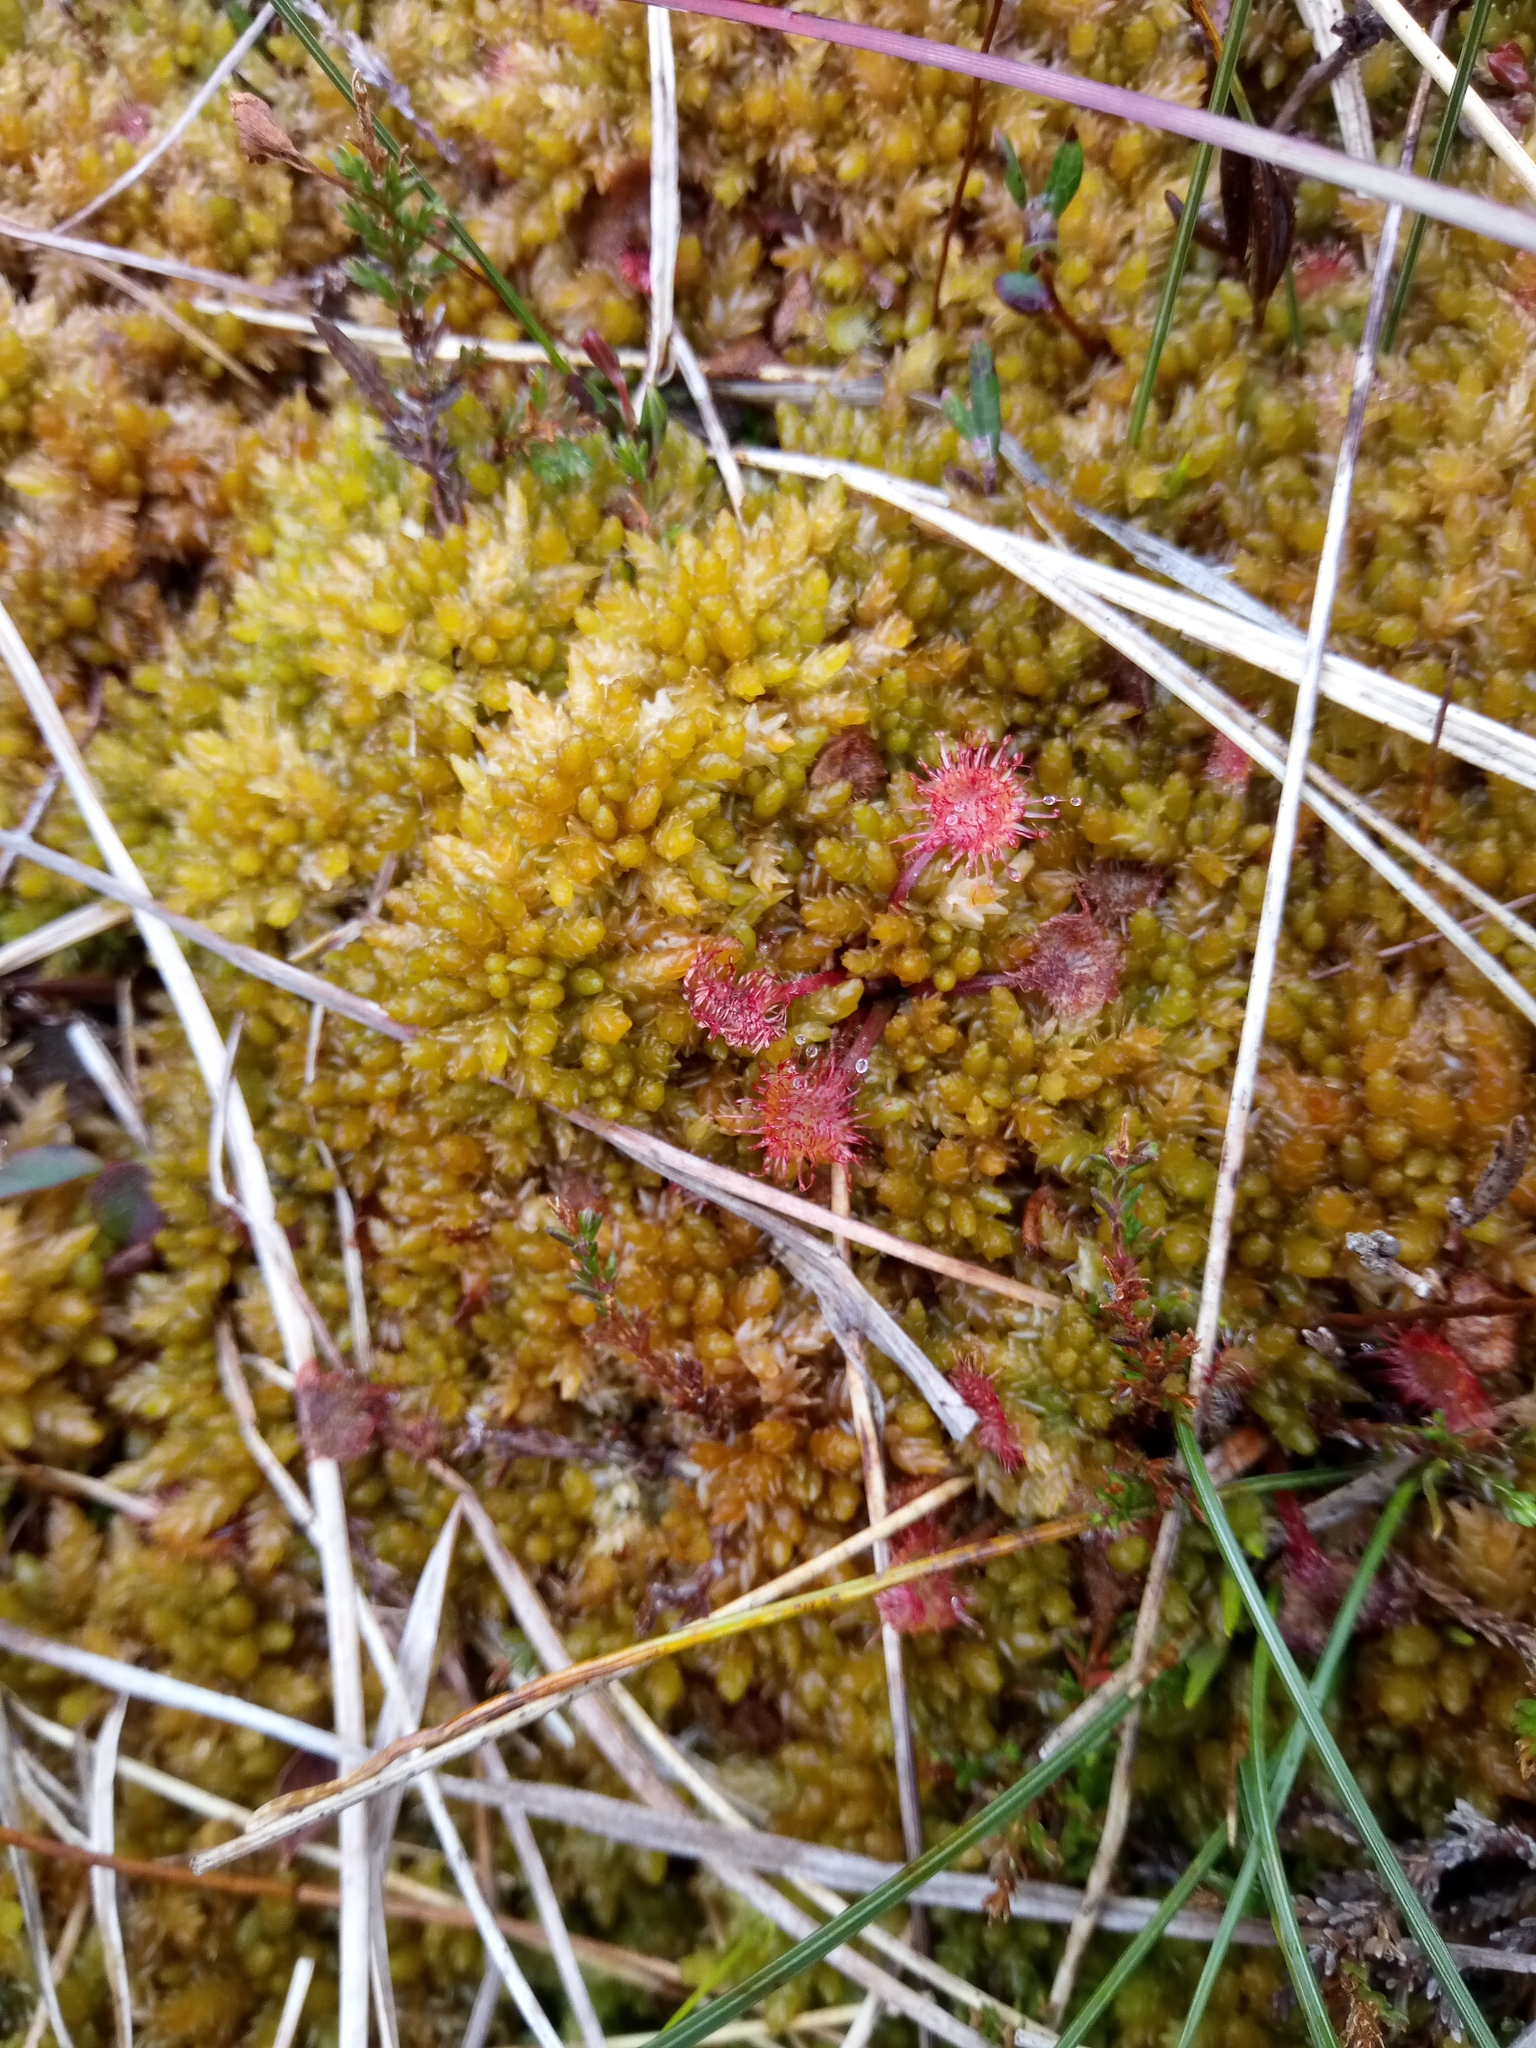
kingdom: Plantae
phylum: Tracheophyta
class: Magnoliopsida
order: Caryophyllales
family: Droseraceae
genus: Drosera
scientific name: Drosera rotundifolia
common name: Round-leaved sundew
